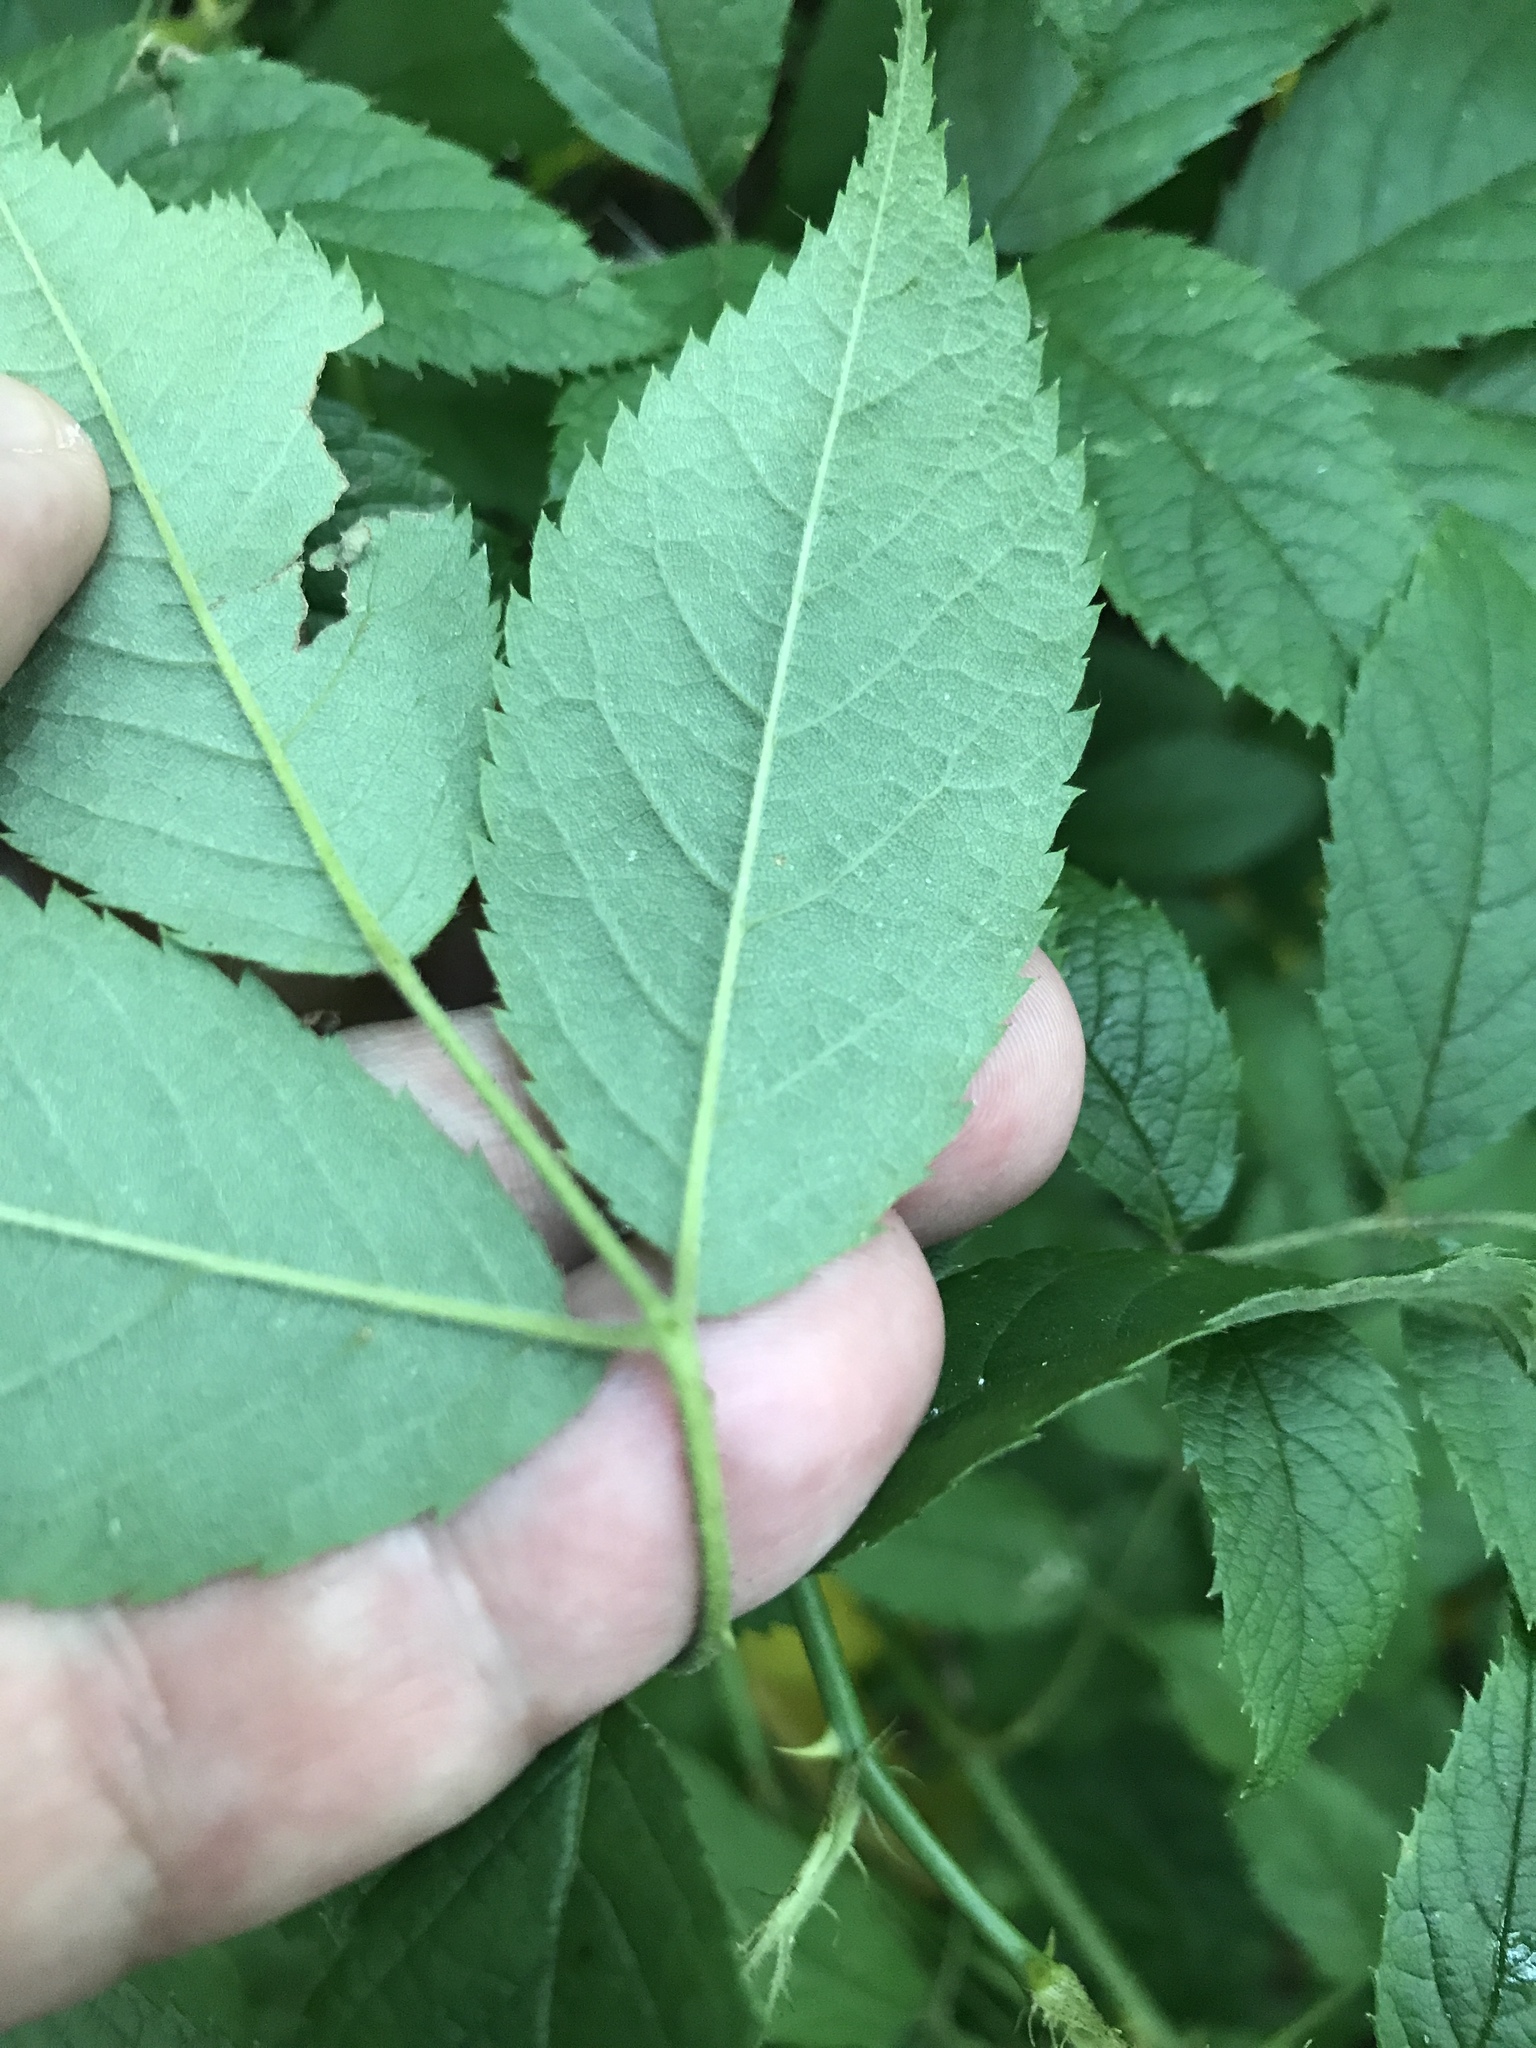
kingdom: Plantae
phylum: Tracheophyta
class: Magnoliopsida
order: Rosales
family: Rosaceae
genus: Rosa
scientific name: Rosa multiflora
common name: Multiflora rose
